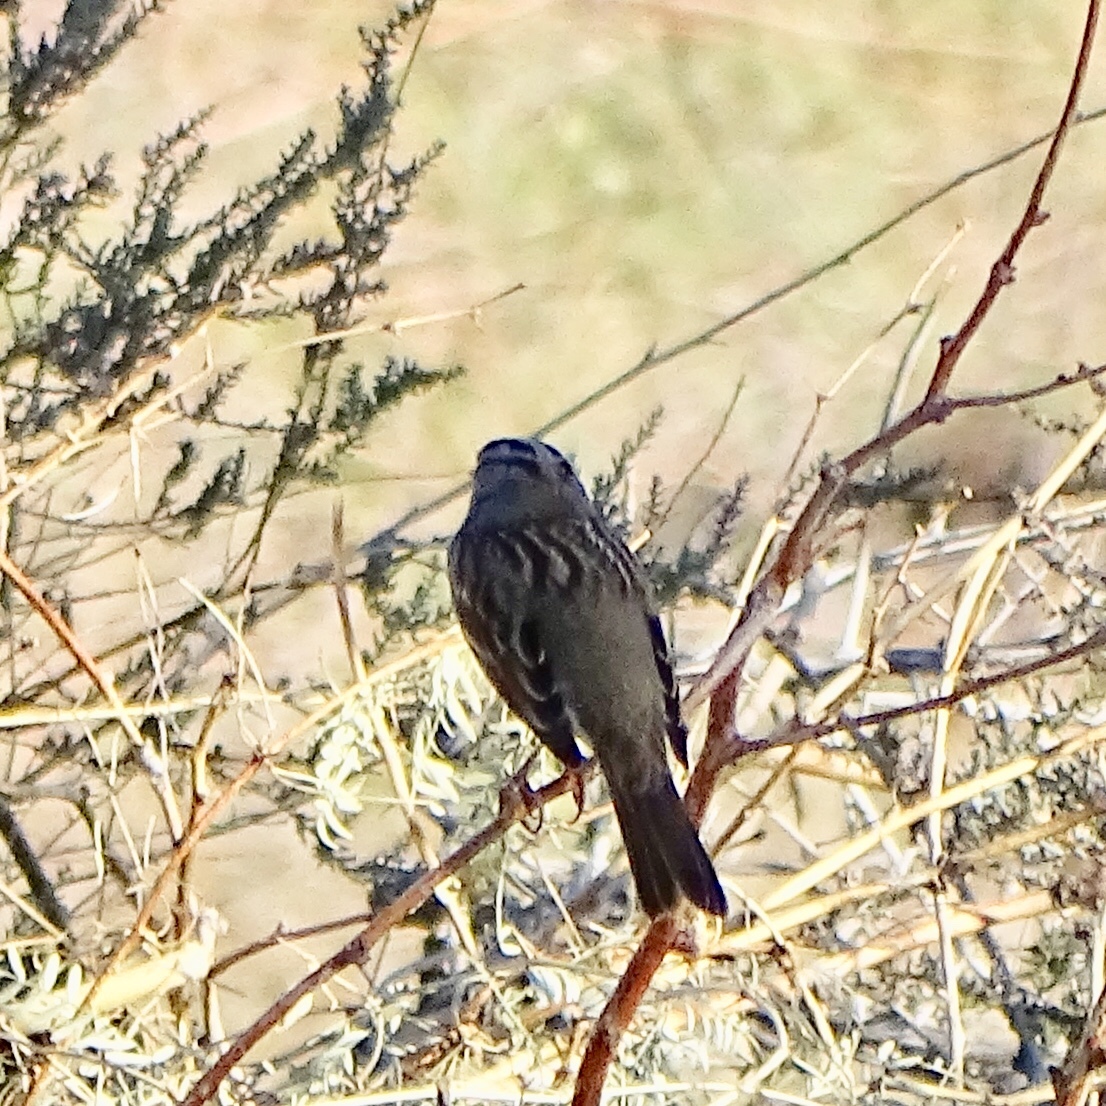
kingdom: Animalia
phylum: Chordata
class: Aves
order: Passeriformes
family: Passerellidae
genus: Zonotrichia
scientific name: Zonotrichia leucophrys
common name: White-crowned sparrow
